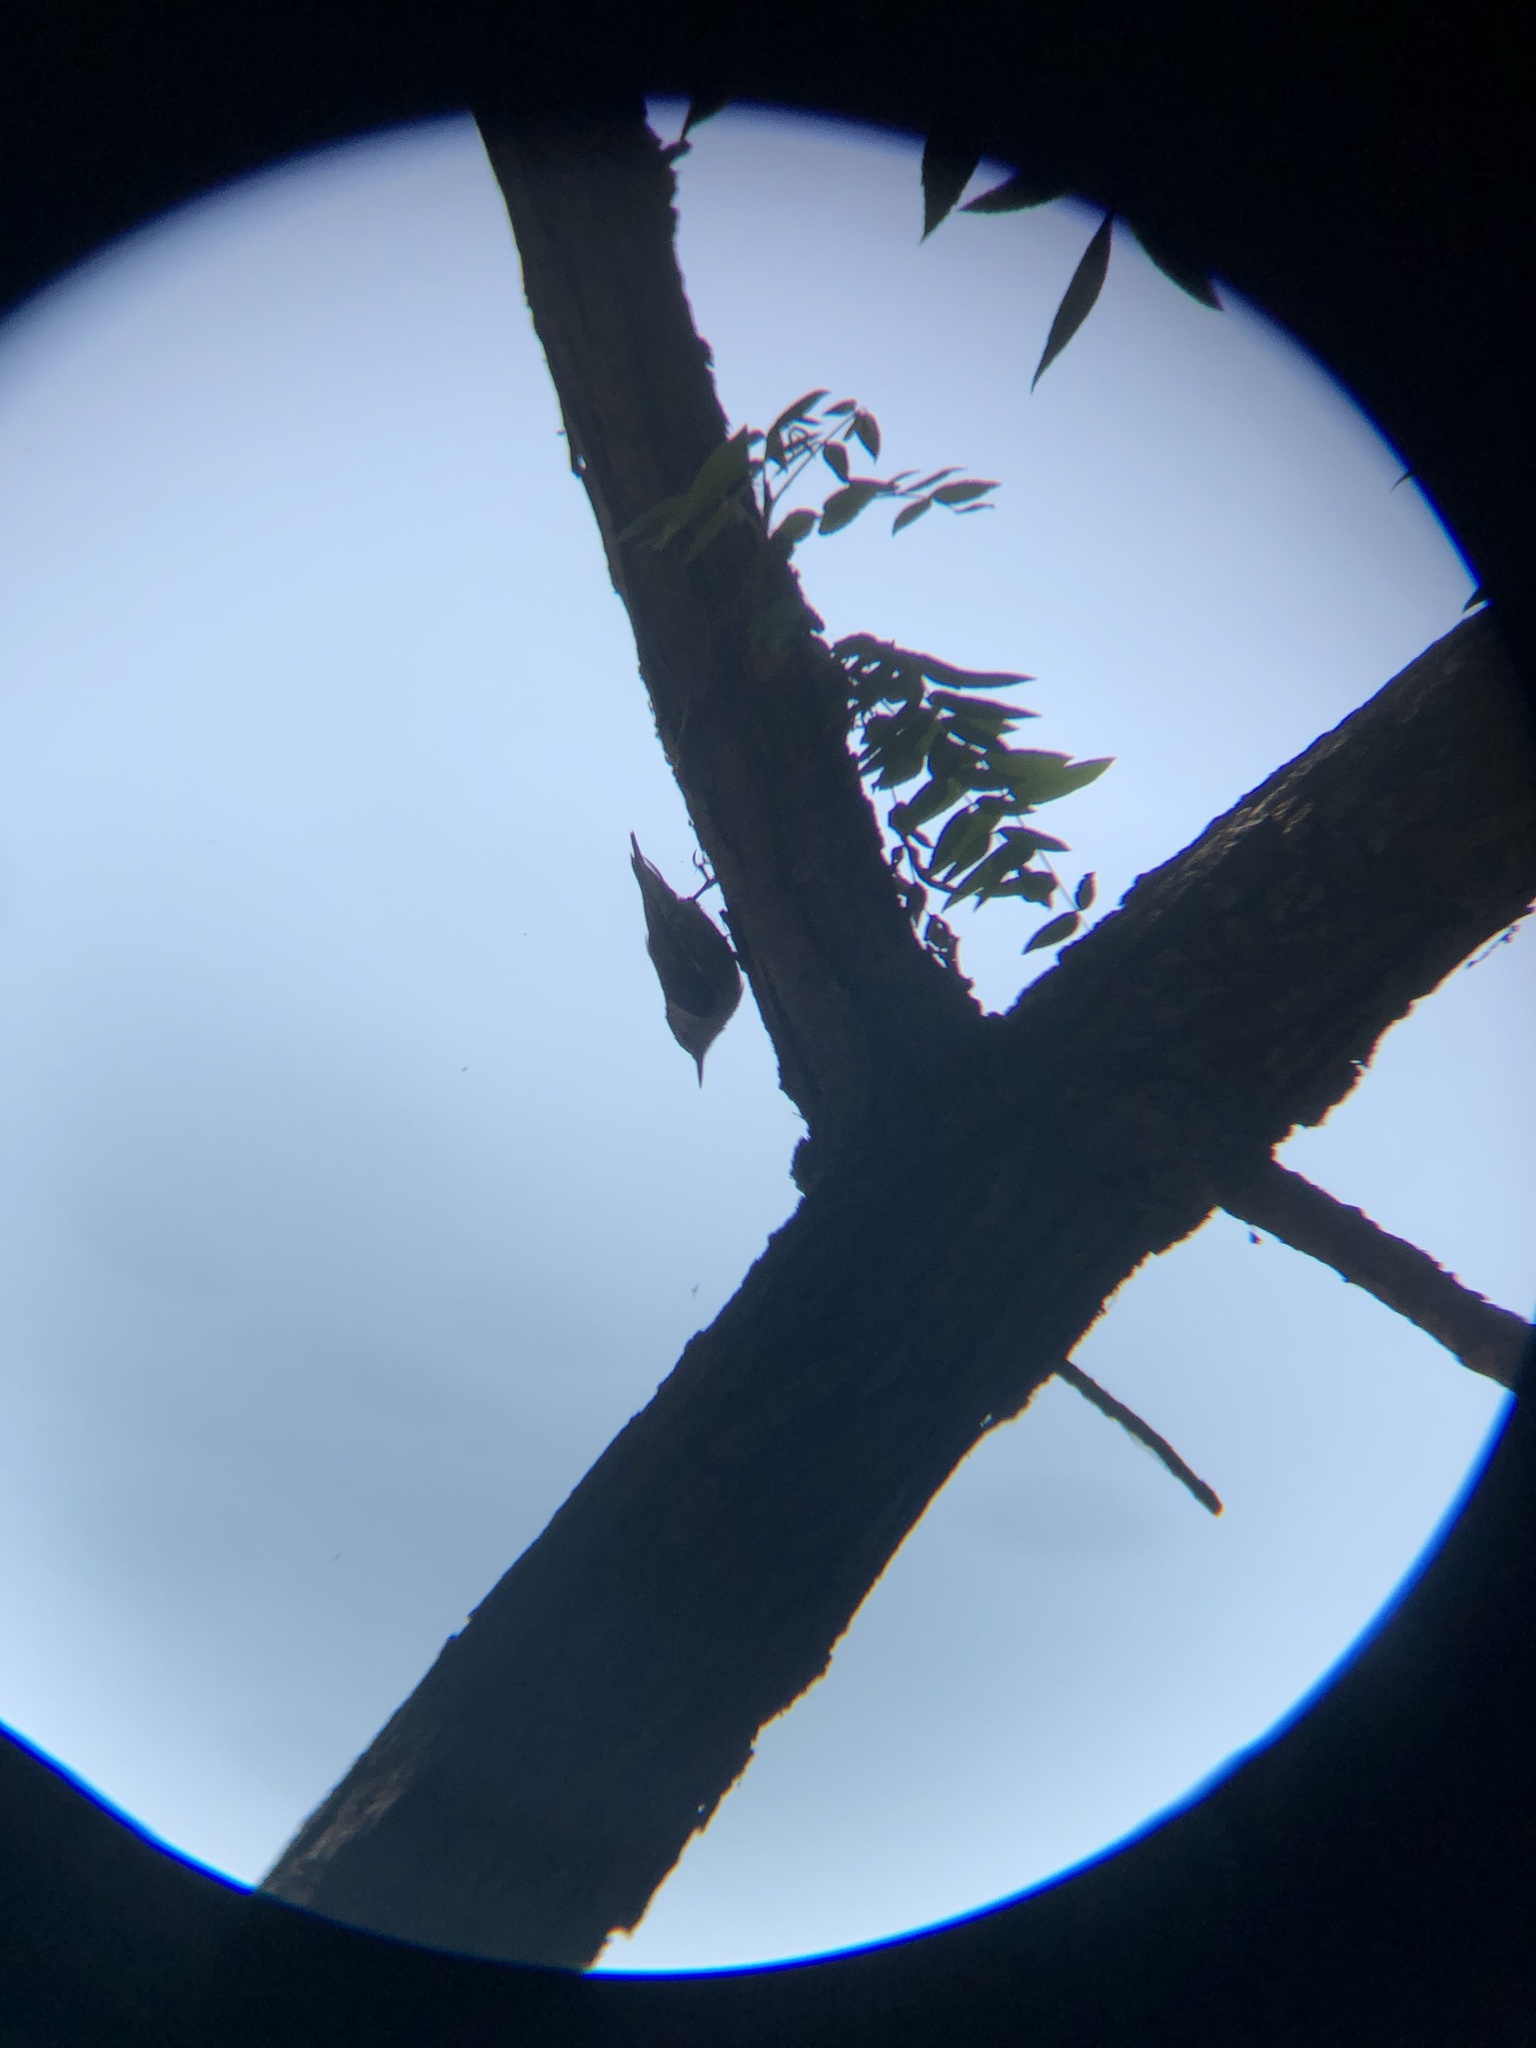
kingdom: Animalia
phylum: Chordata
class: Aves
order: Passeriformes
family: Sittidae
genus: Sitta
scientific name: Sitta carolinensis
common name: White-breasted nuthatch
